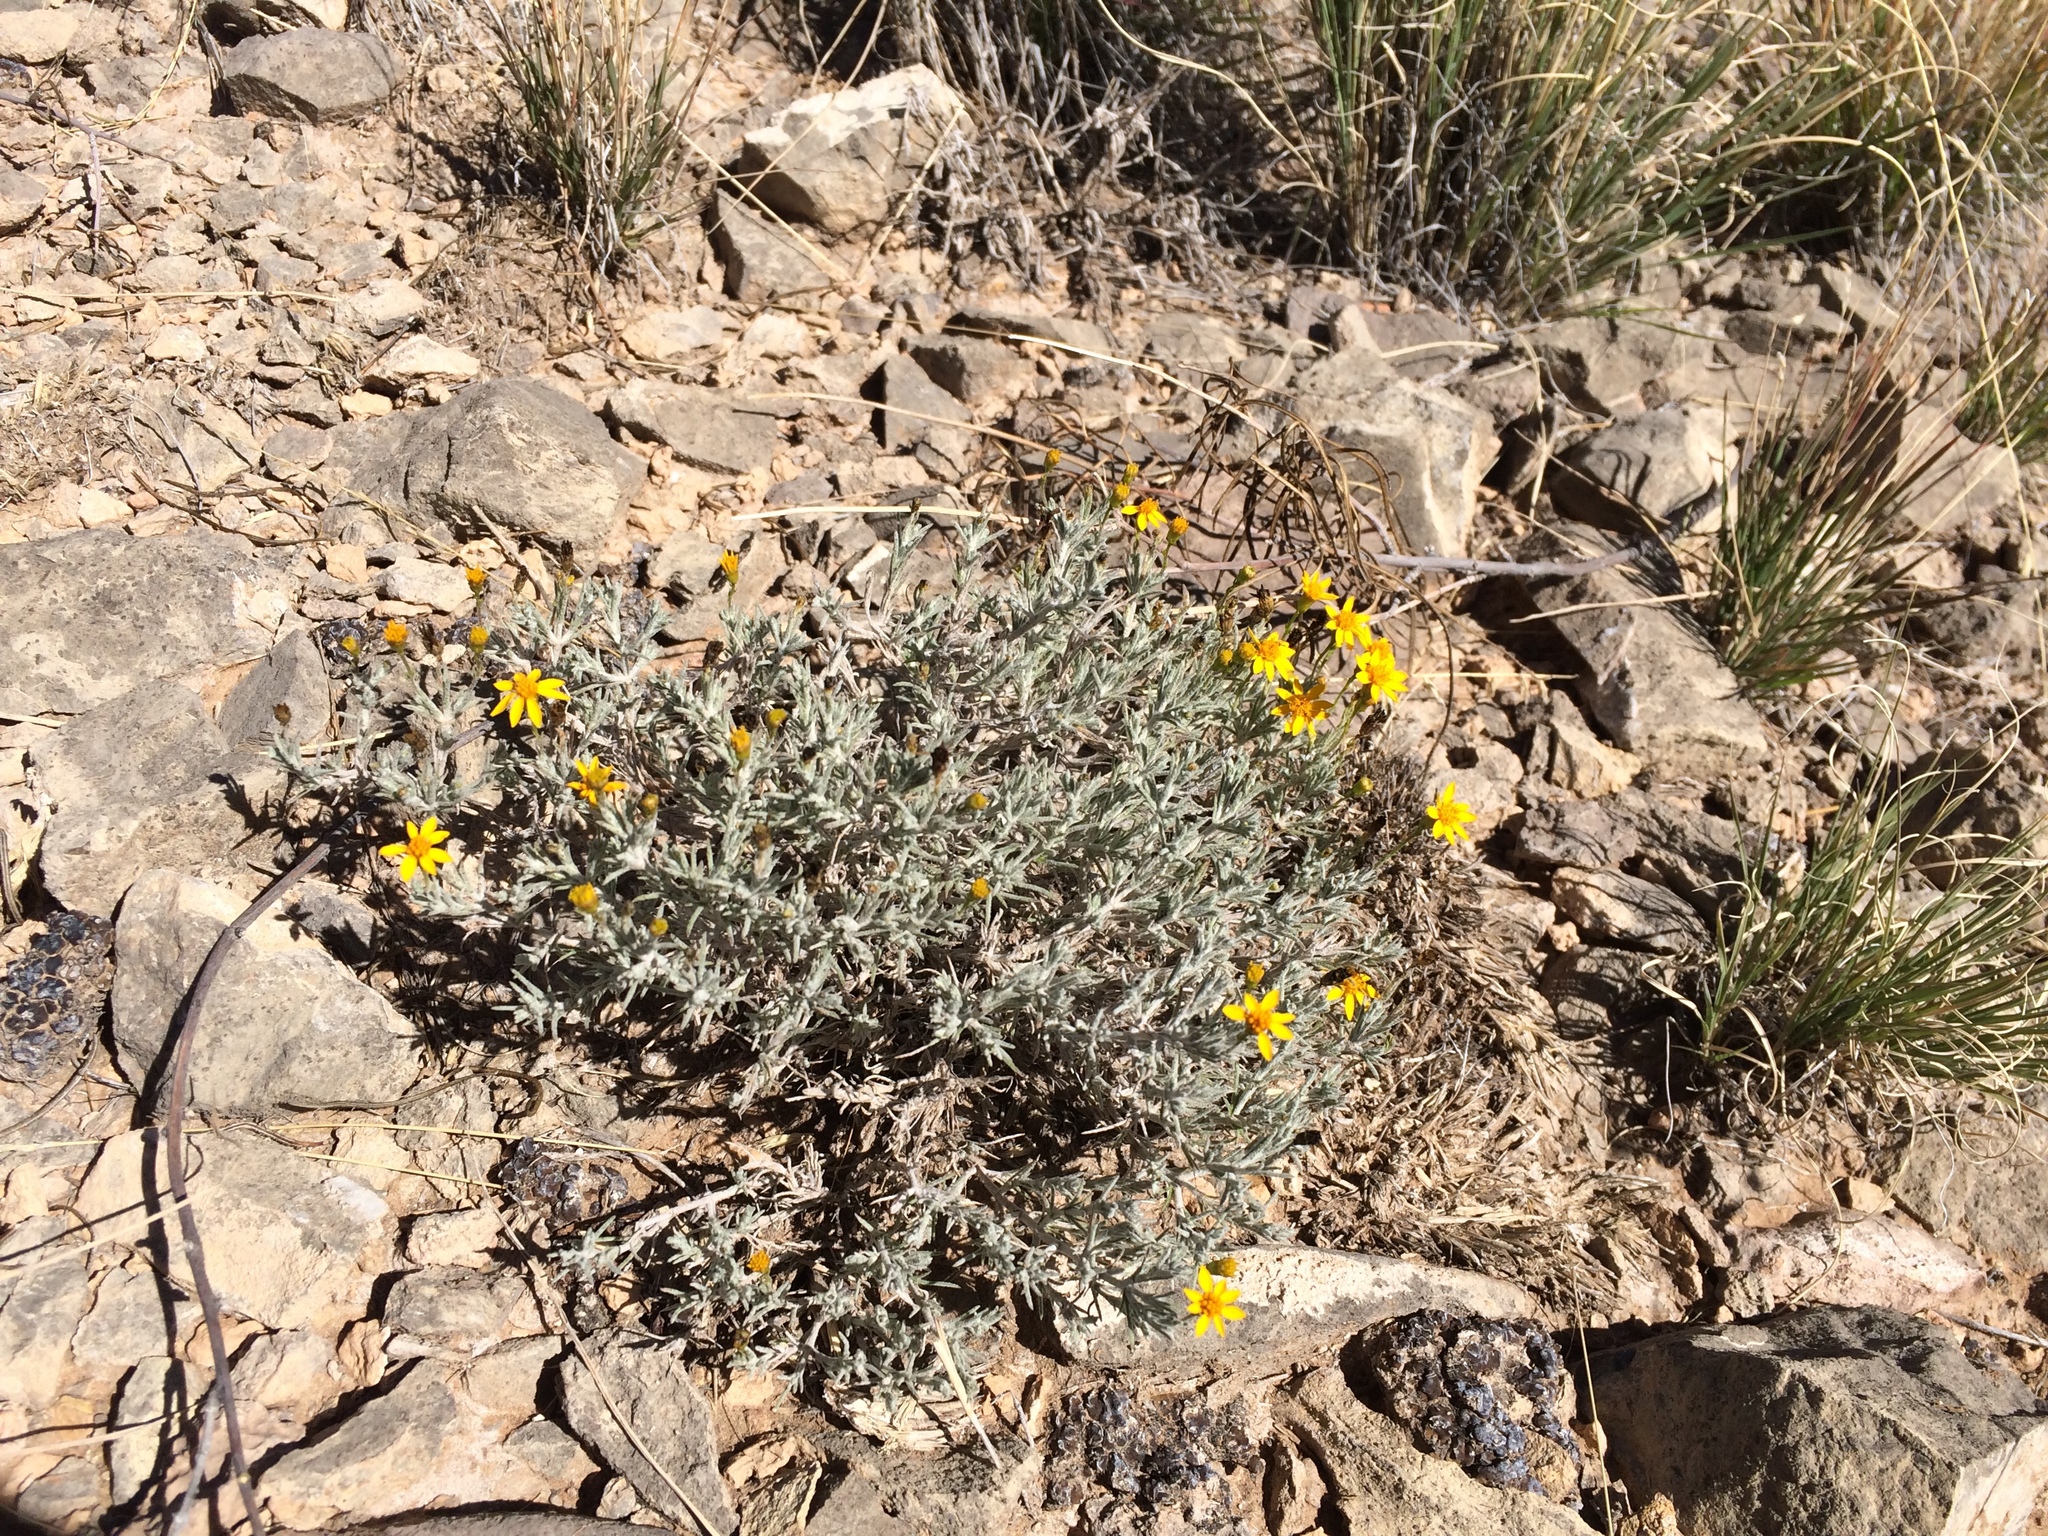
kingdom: Plantae
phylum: Tracheophyta
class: Magnoliopsida
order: Asterales
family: Asteraceae
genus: Thymophylla
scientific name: Thymophylla setifolia
